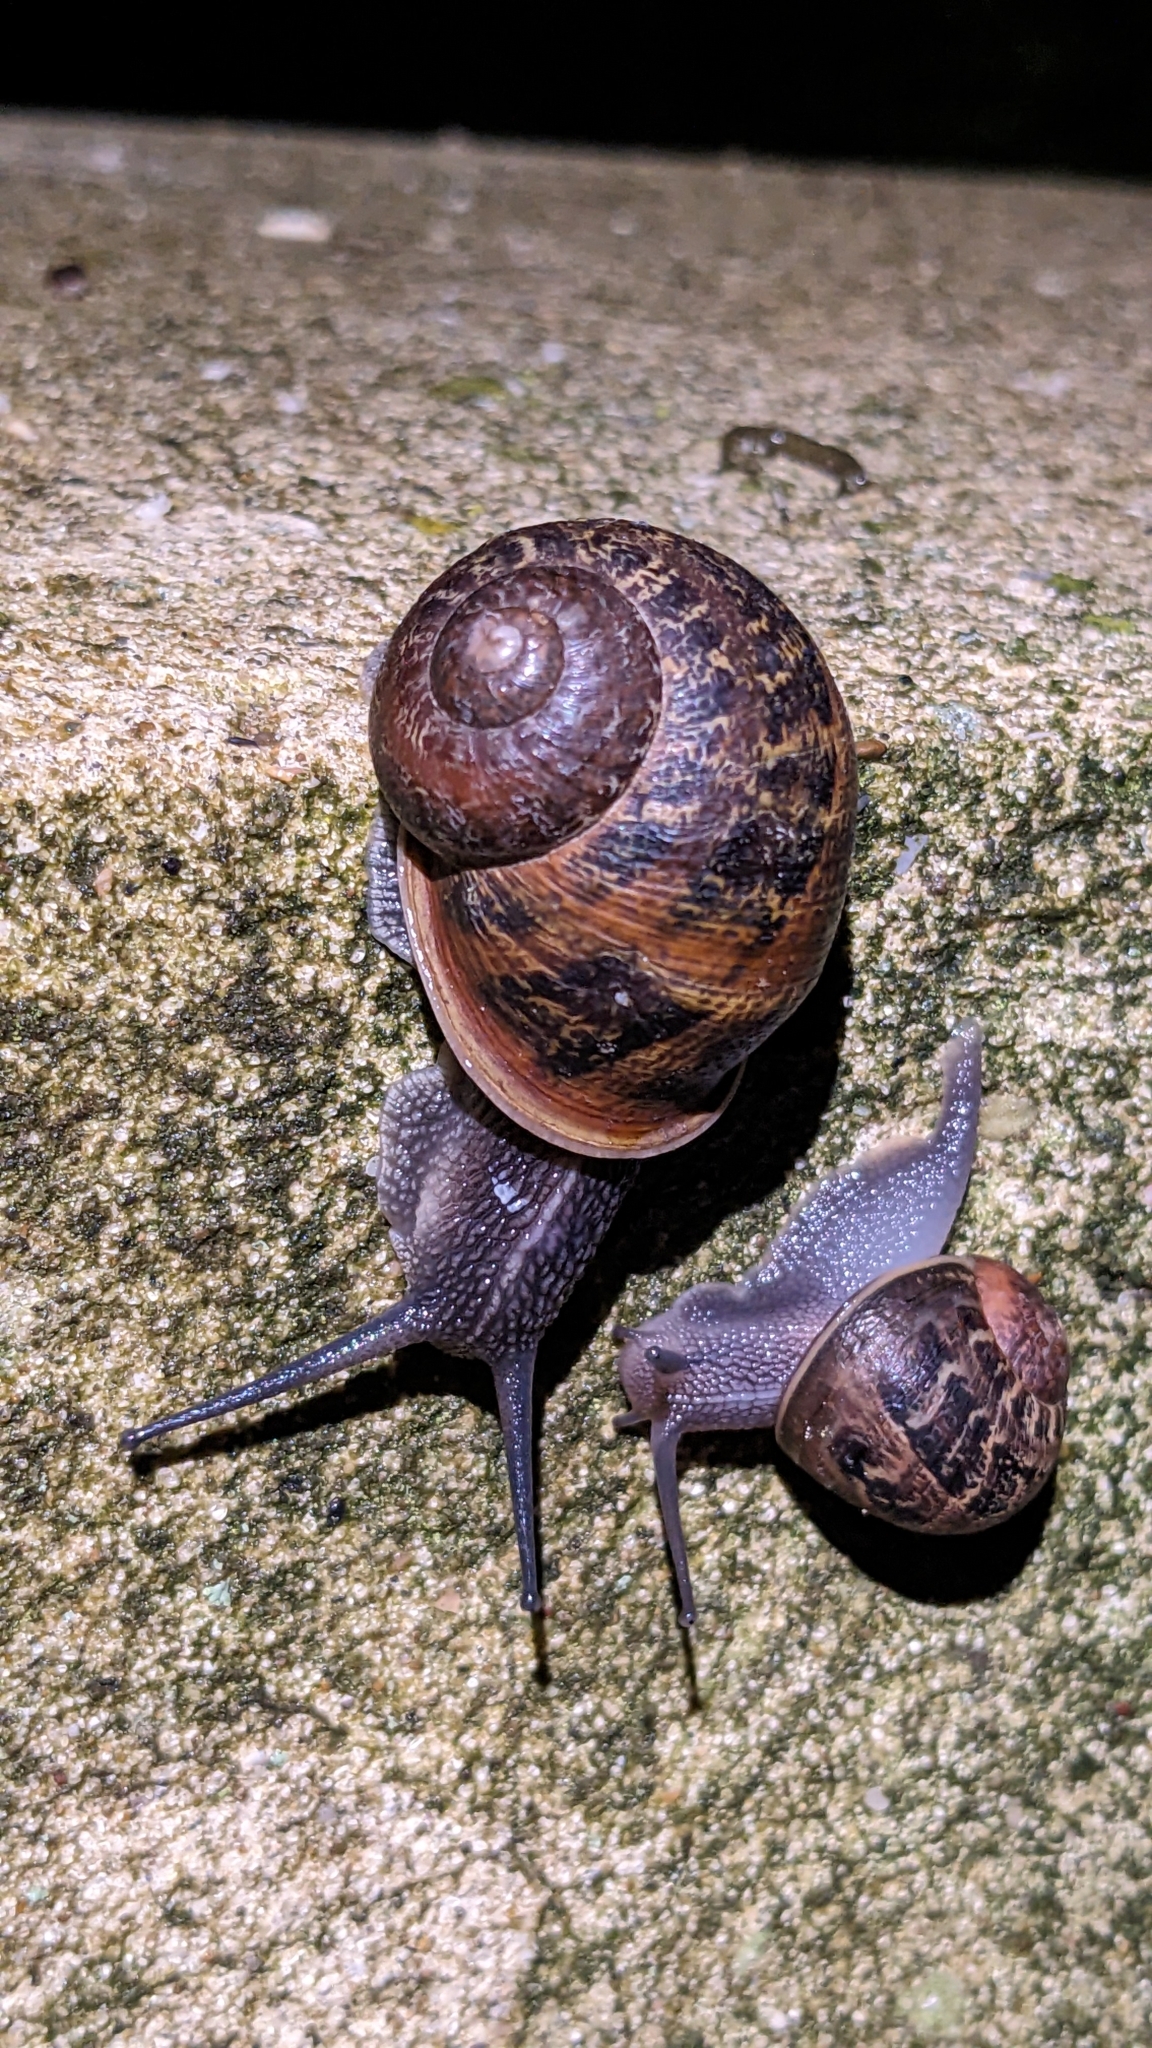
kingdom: Animalia
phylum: Mollusca
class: Gastropoda
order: Stylommatophora
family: Helicidae
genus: Cornu
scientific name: Cornu aspersum
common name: Brown garden snail
